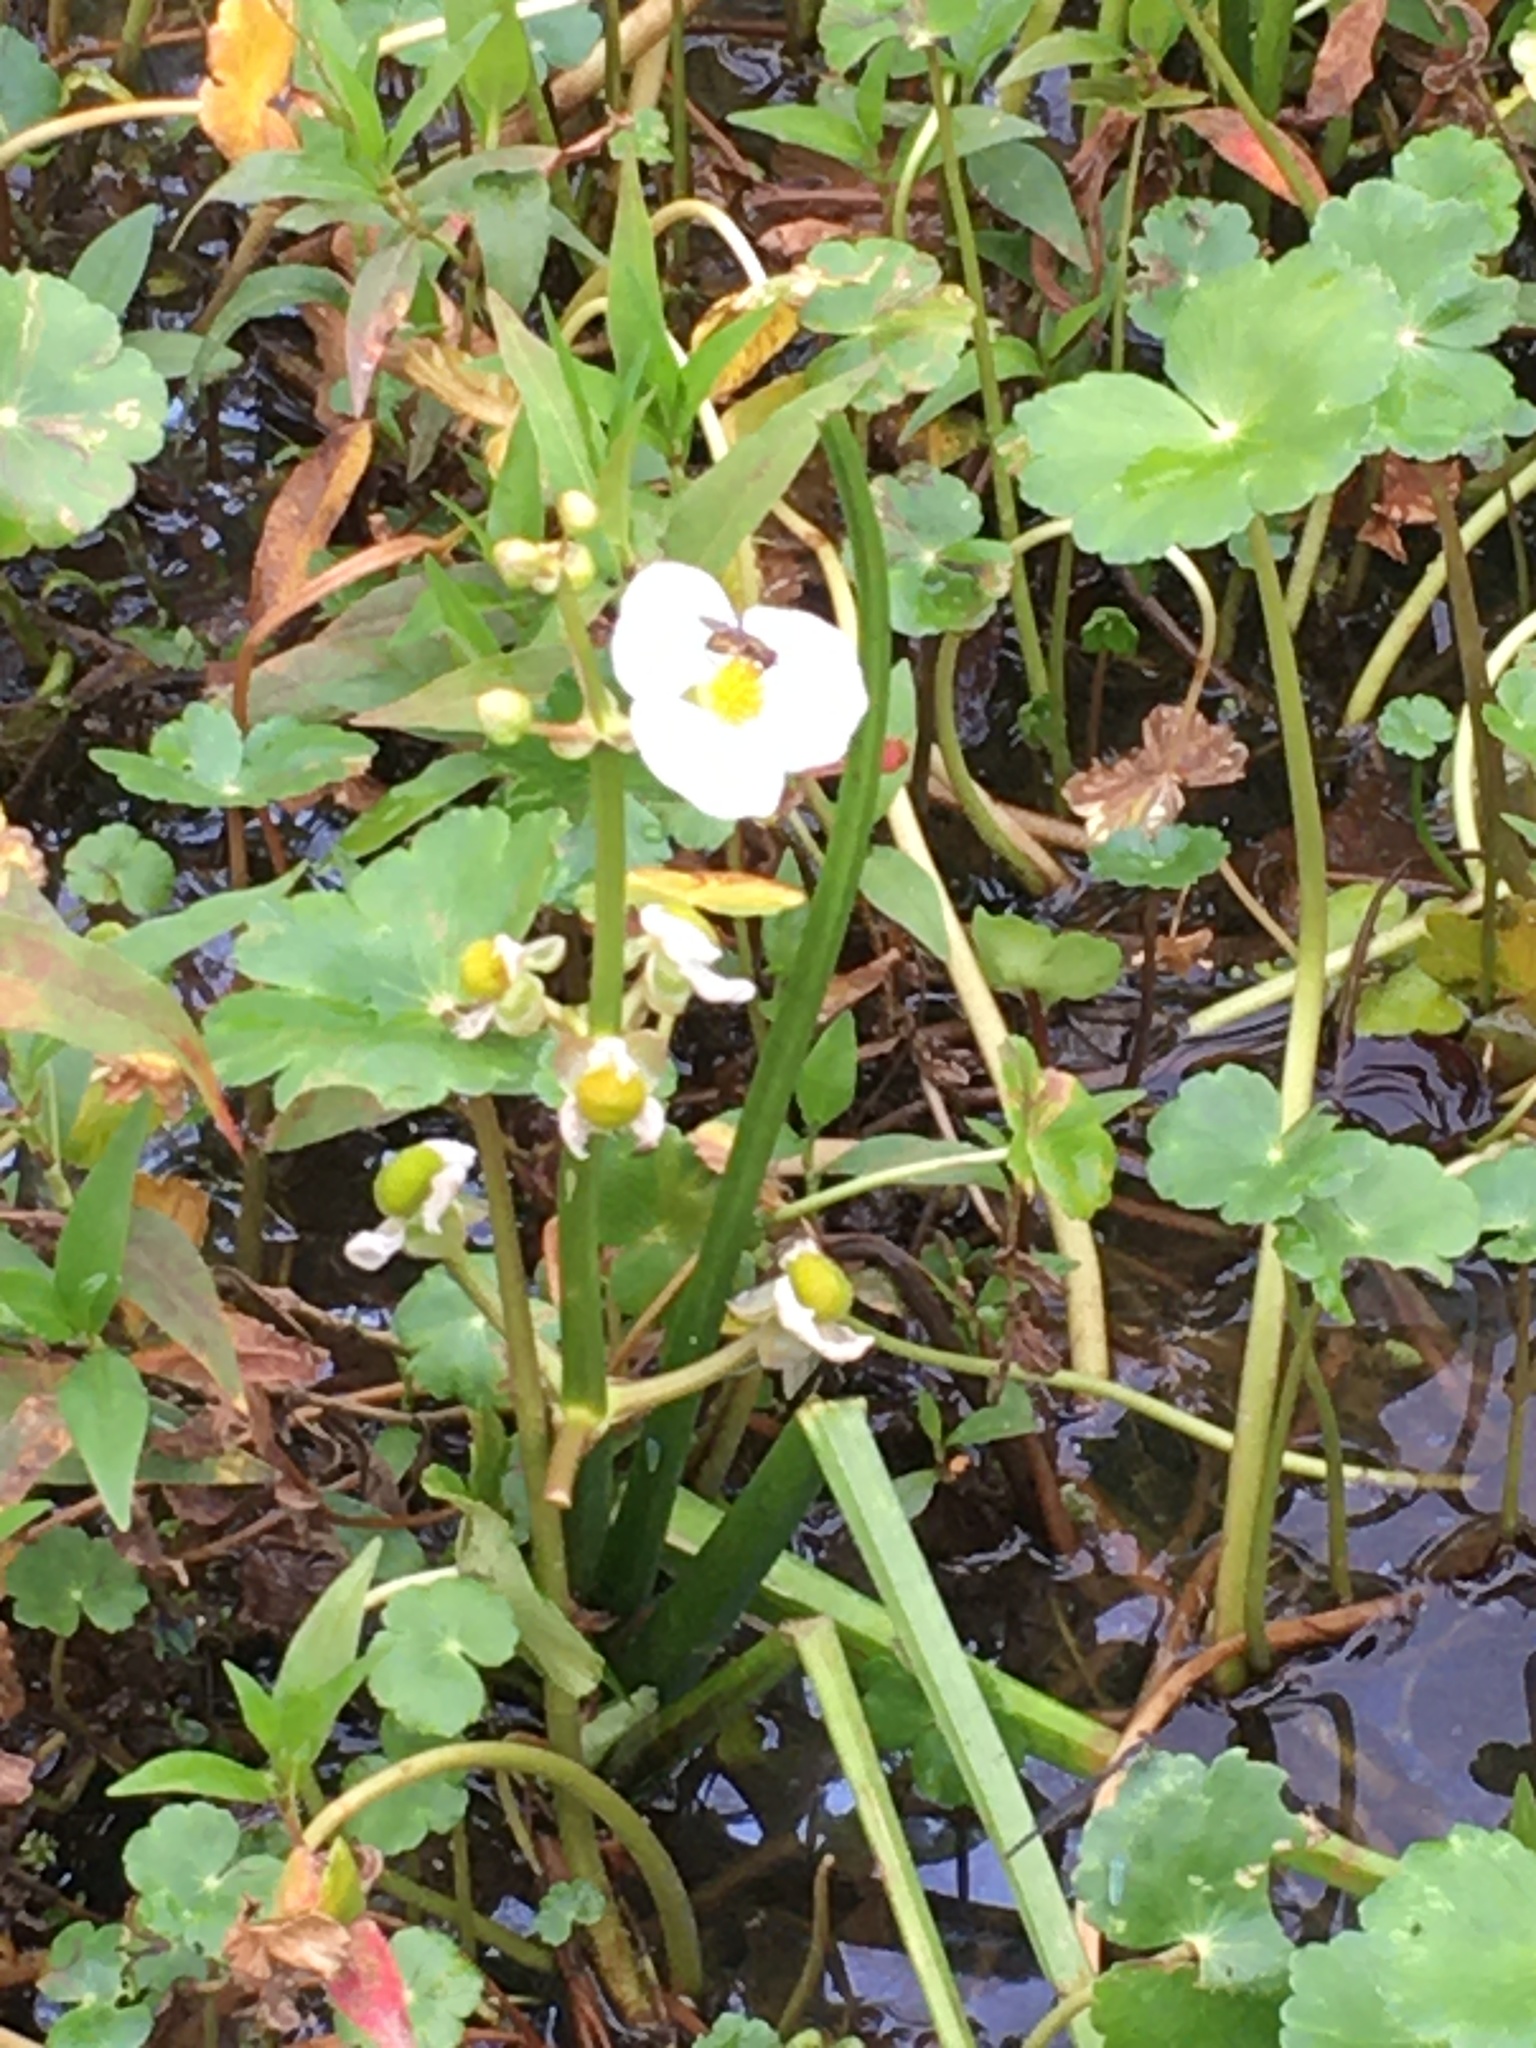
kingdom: Plantae
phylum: Tracheophyta
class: Liliopsida
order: Alismatales
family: Alismataceae
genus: Sagittaria
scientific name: Sagittaria latifolia
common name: Duck-potato
